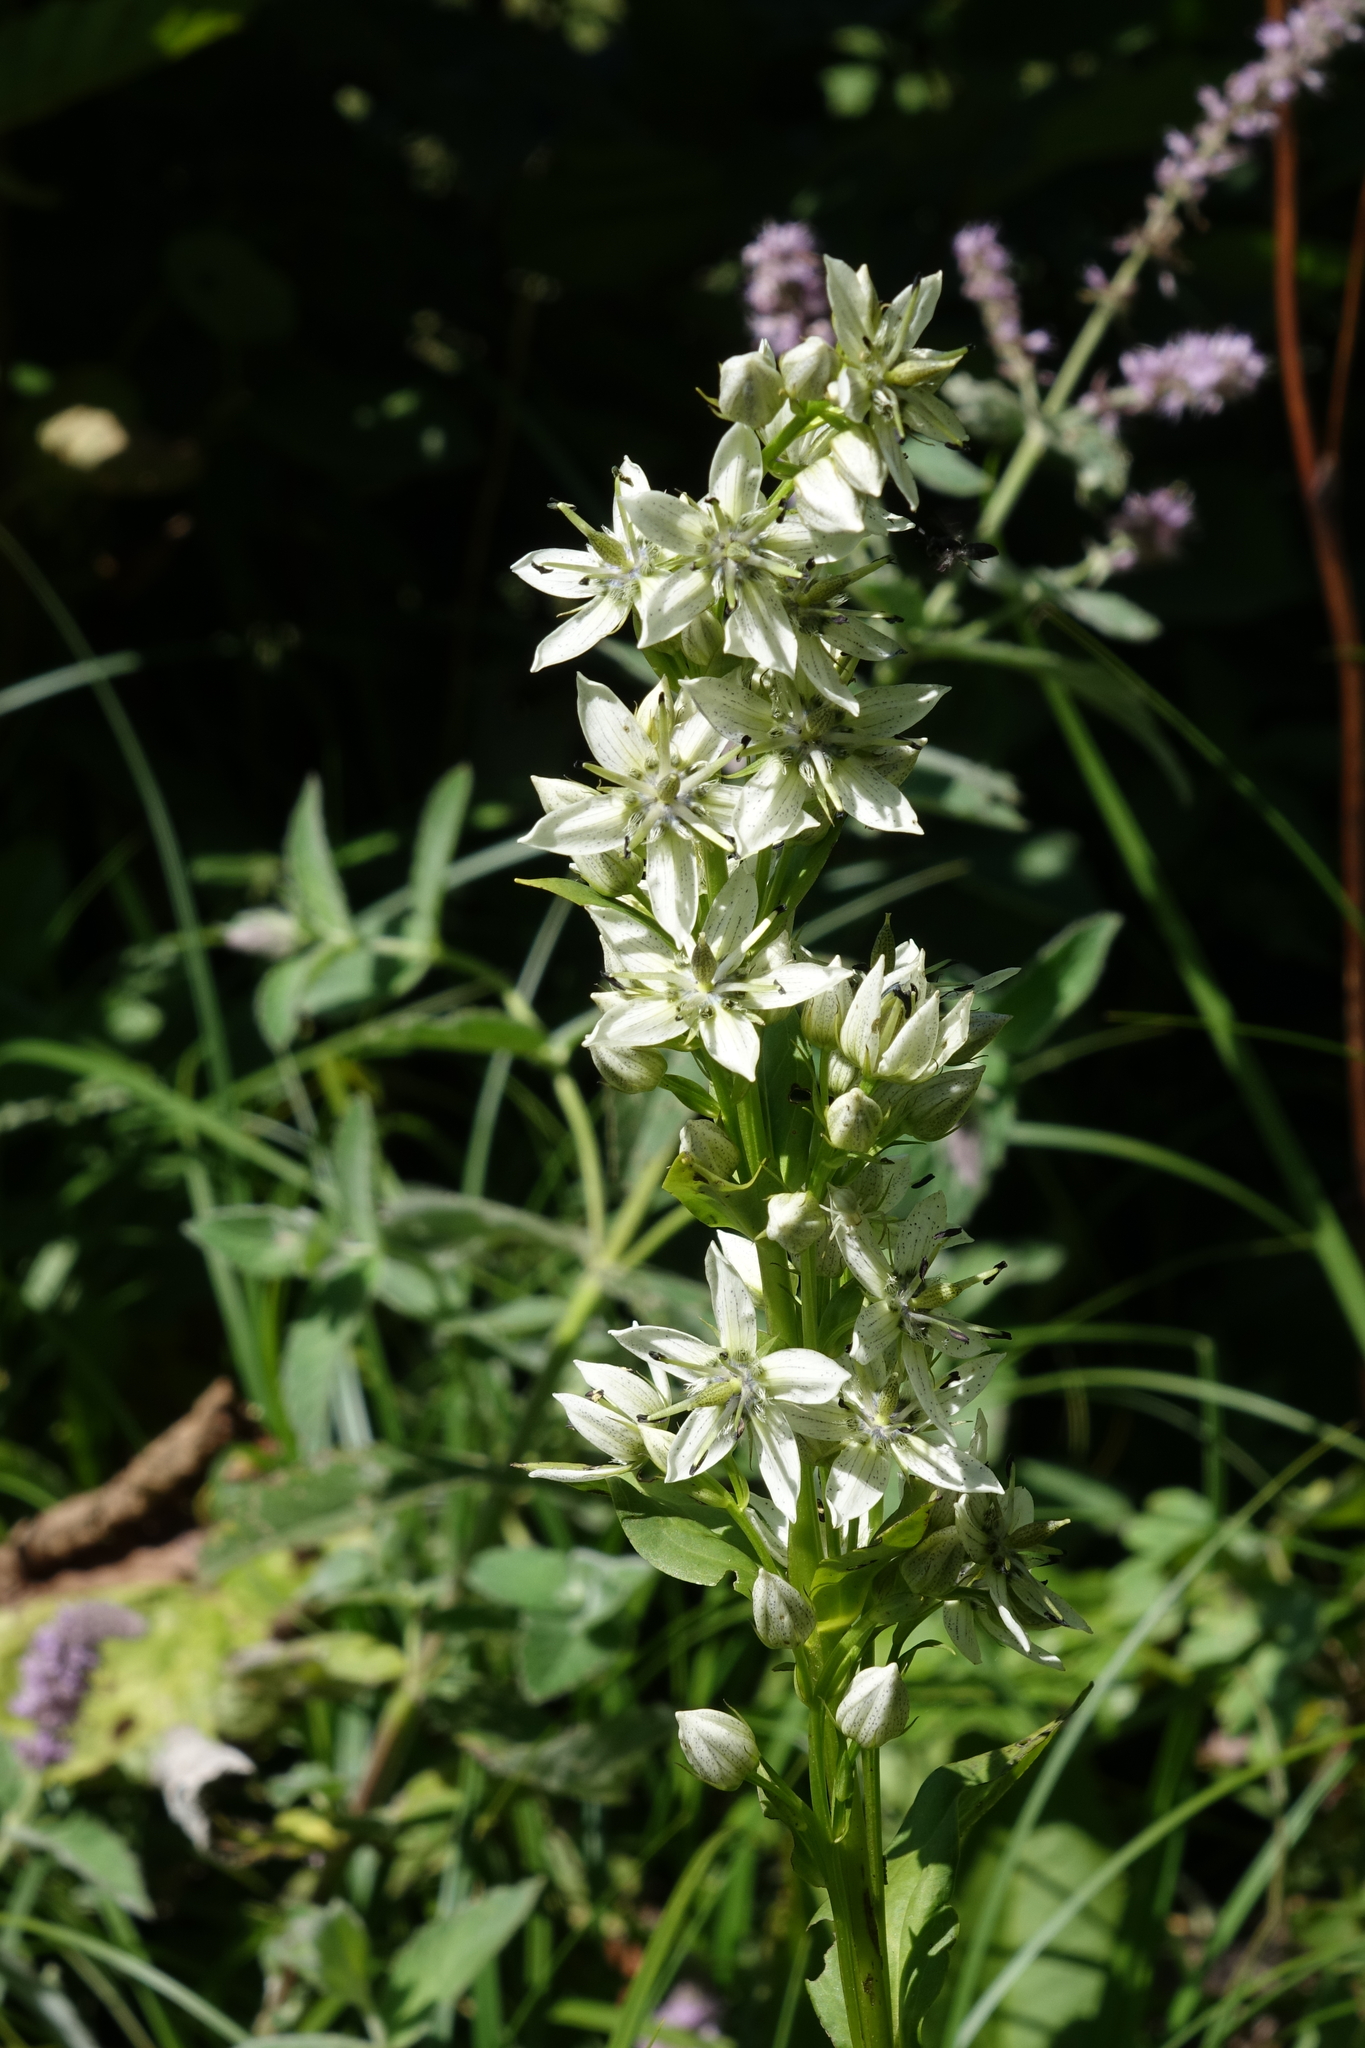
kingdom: Plantae
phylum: Tracheophyta
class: Magnoliopsida
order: Gentianales
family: Gentianaceae
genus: Swertia
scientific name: Swertia iberica
